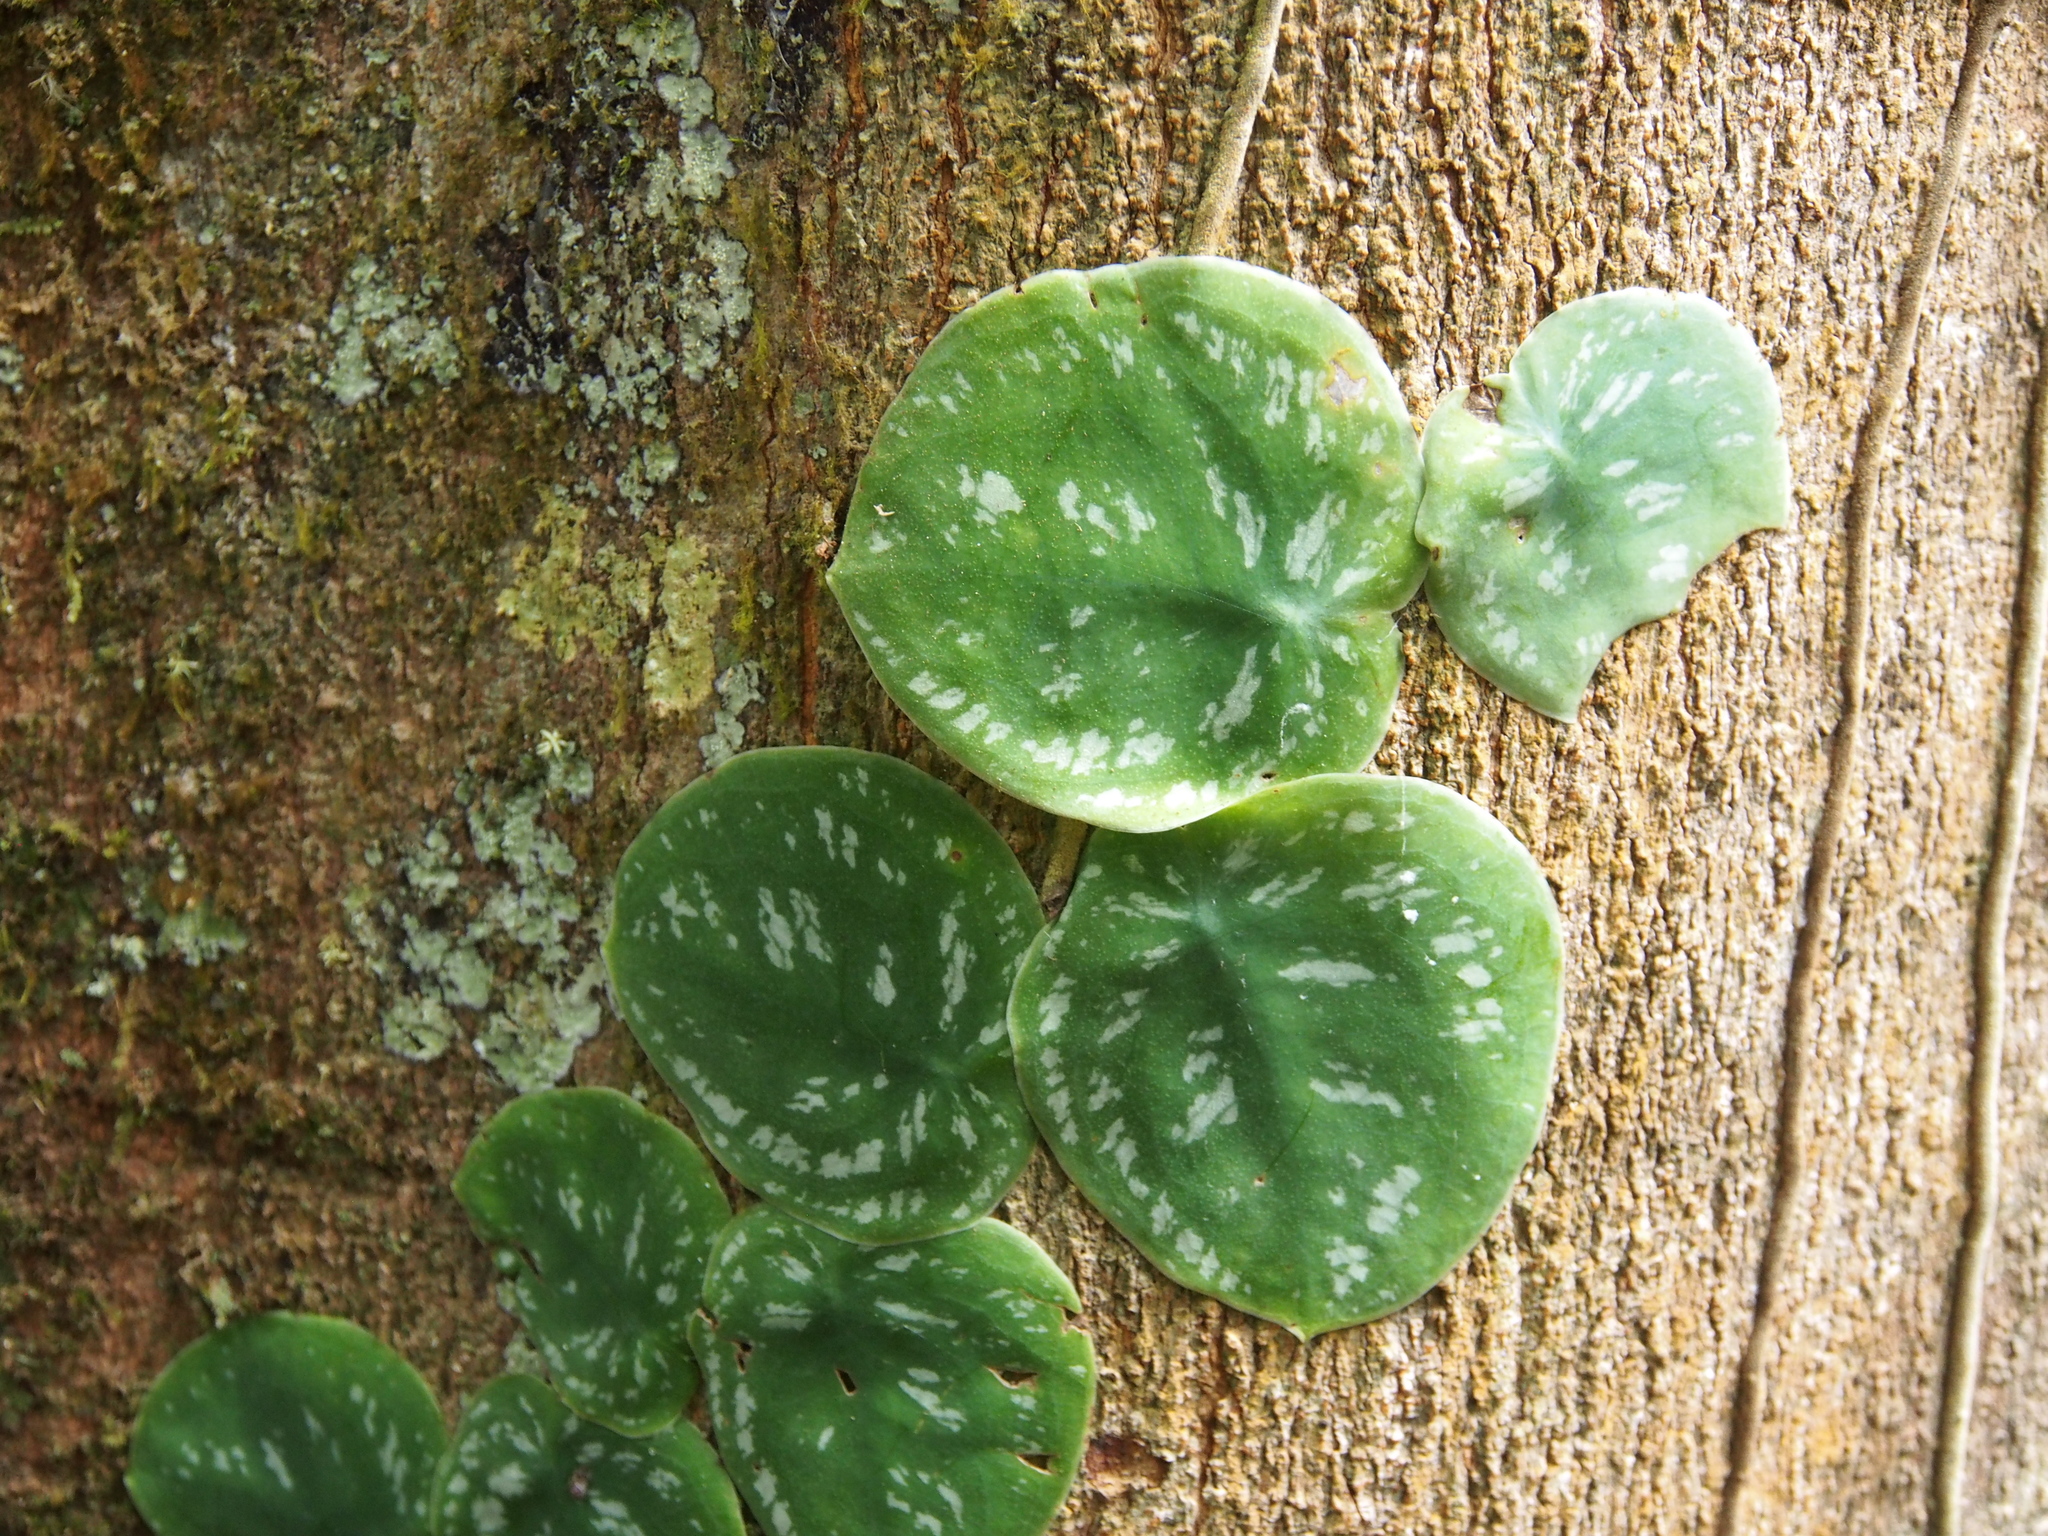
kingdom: Plantae
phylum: Tracheophyta
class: Liliopsida
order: Alismatales
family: Araceae
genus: Monstera
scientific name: Monstera tuberculata
